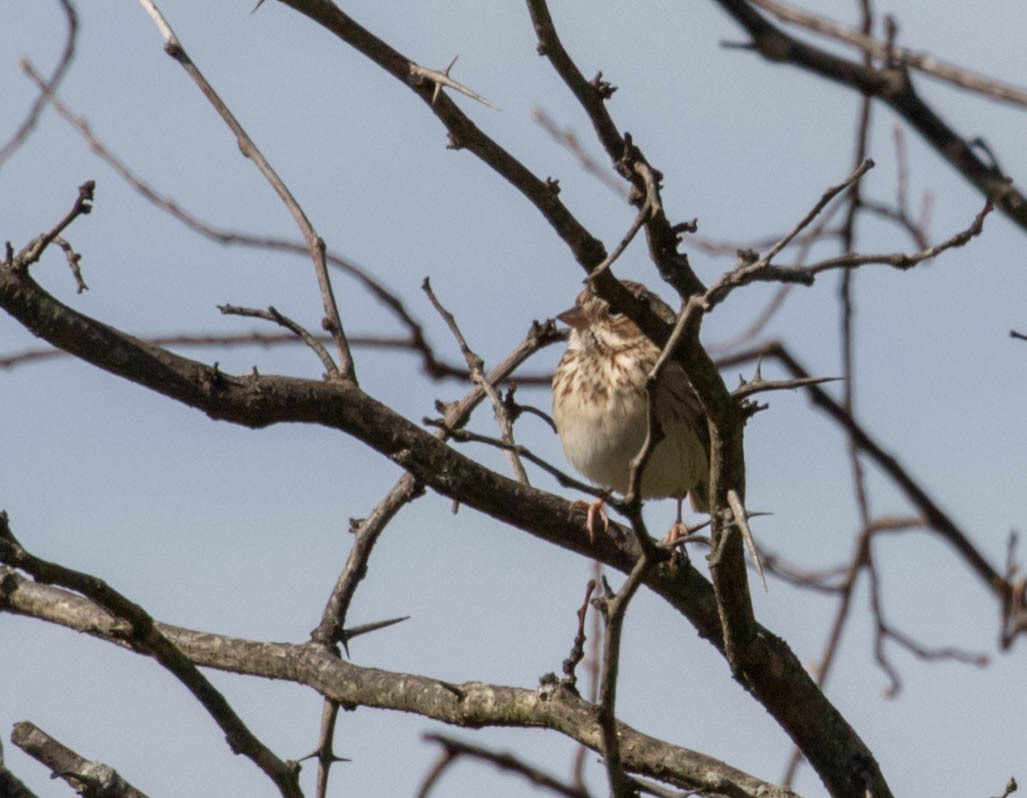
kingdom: Animalia
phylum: Chordata
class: Aves
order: Passeriformes
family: Passerellidae
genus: Pooecetes
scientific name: Pooecetes gramineus
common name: Vesper sparrow
